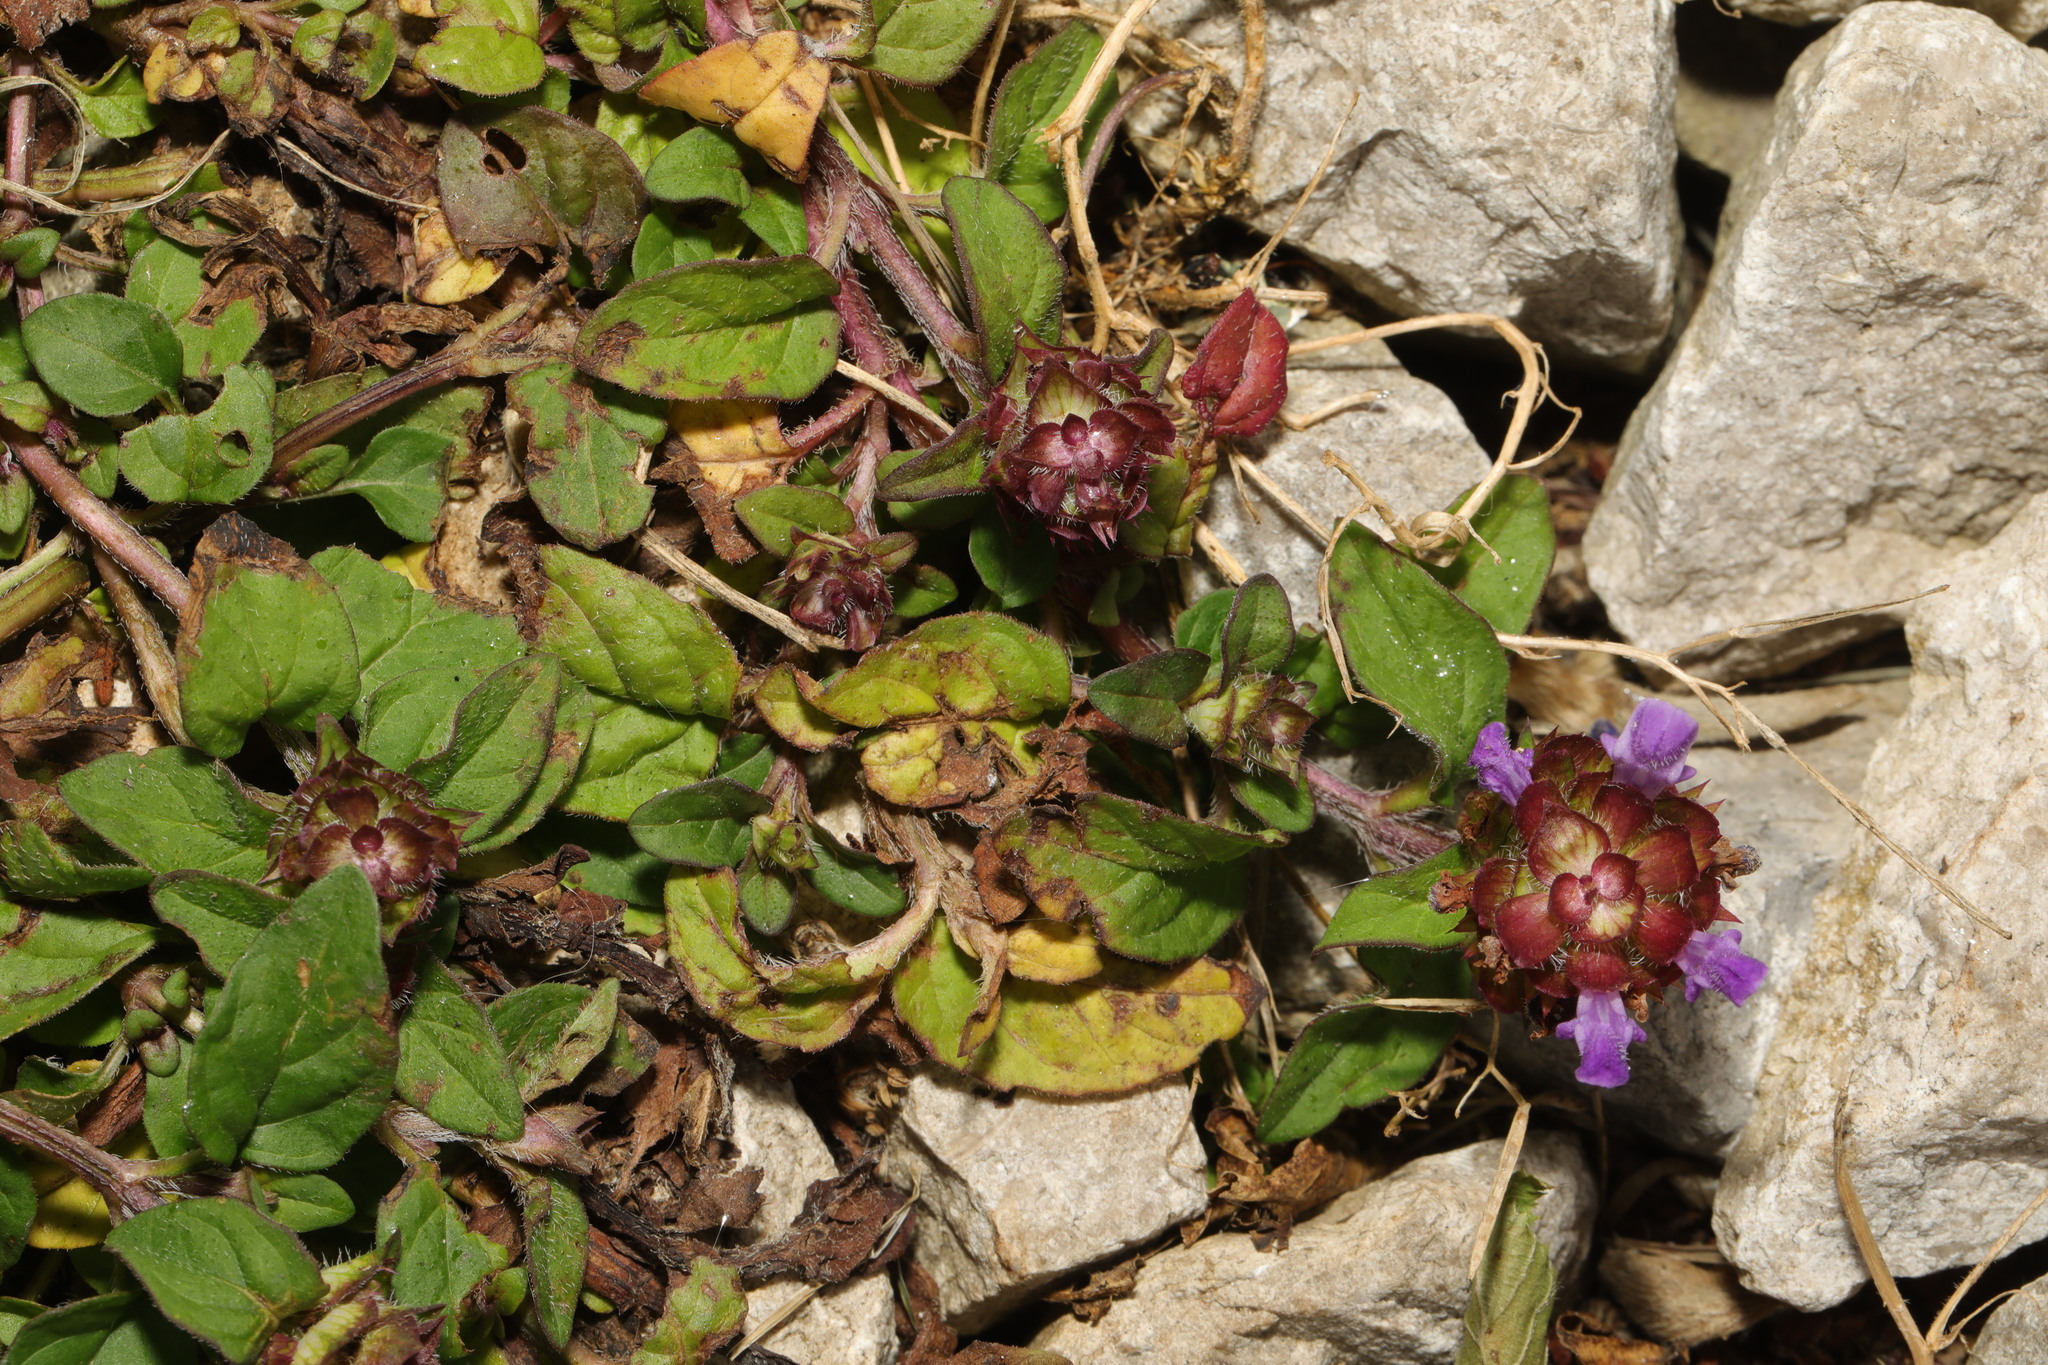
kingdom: Plantae
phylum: Tracheophyta
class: Magnoliopsida
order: Lamiales
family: Lamiaceae
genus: Prunella
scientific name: Prunella vulgaris
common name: Heal-all
